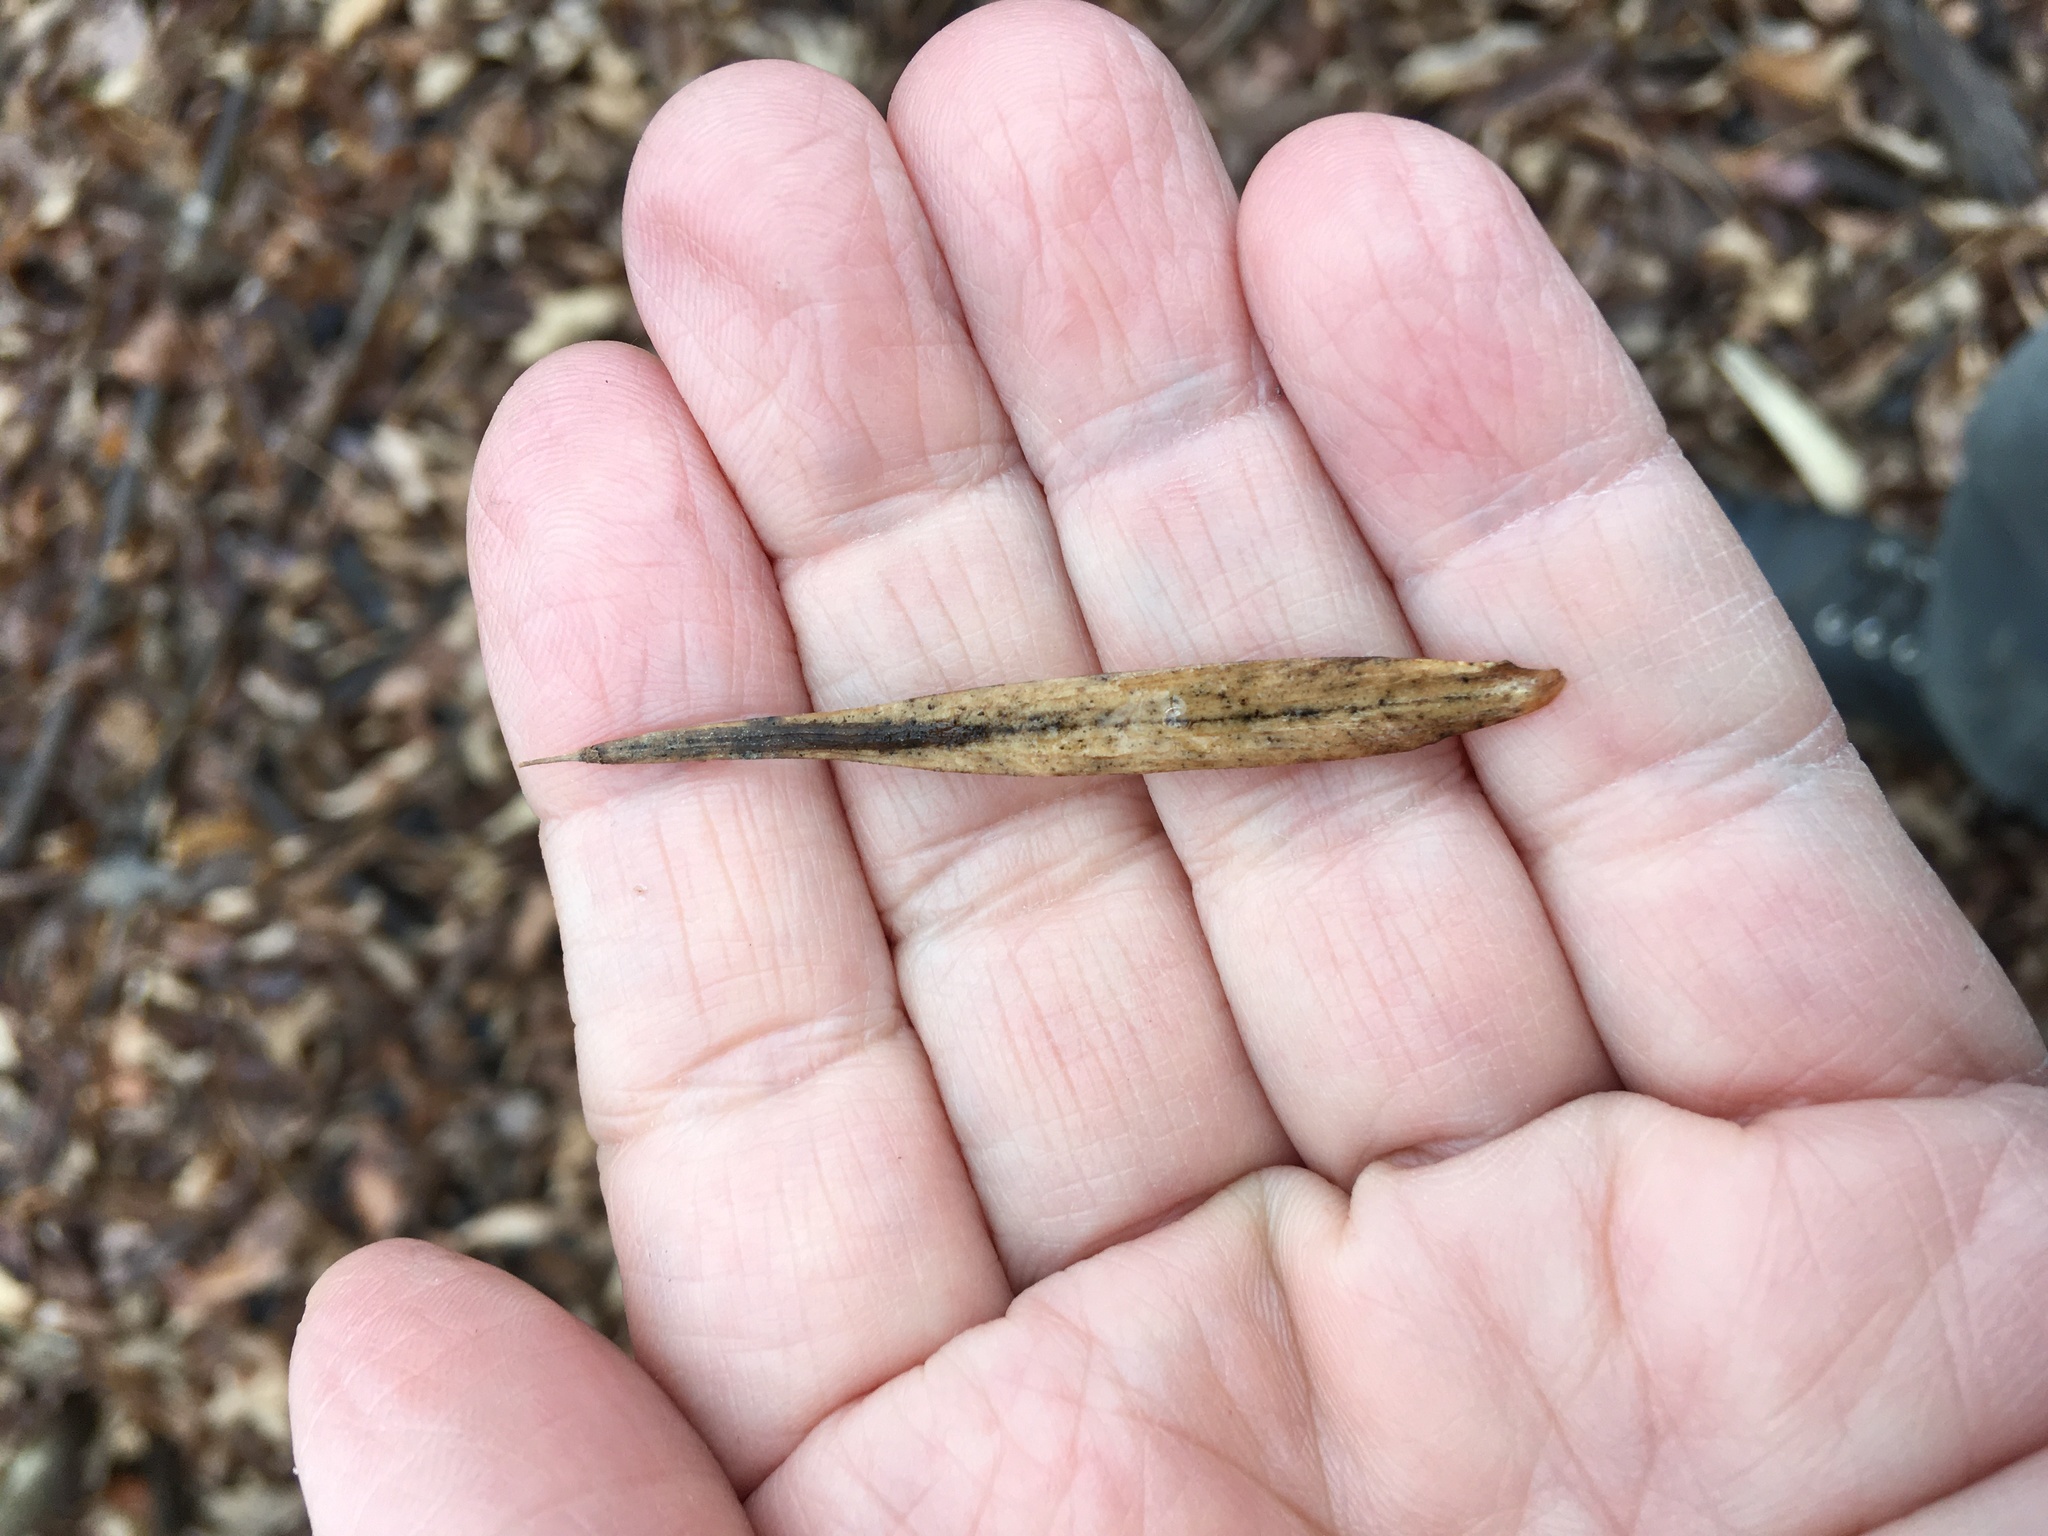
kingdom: Plantae
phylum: Tracheophyta
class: Magnoliopsida
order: Lamiales
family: Oleaceae
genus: Fraxinus
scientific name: Fraxinus pennsylvanica
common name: Green ash
